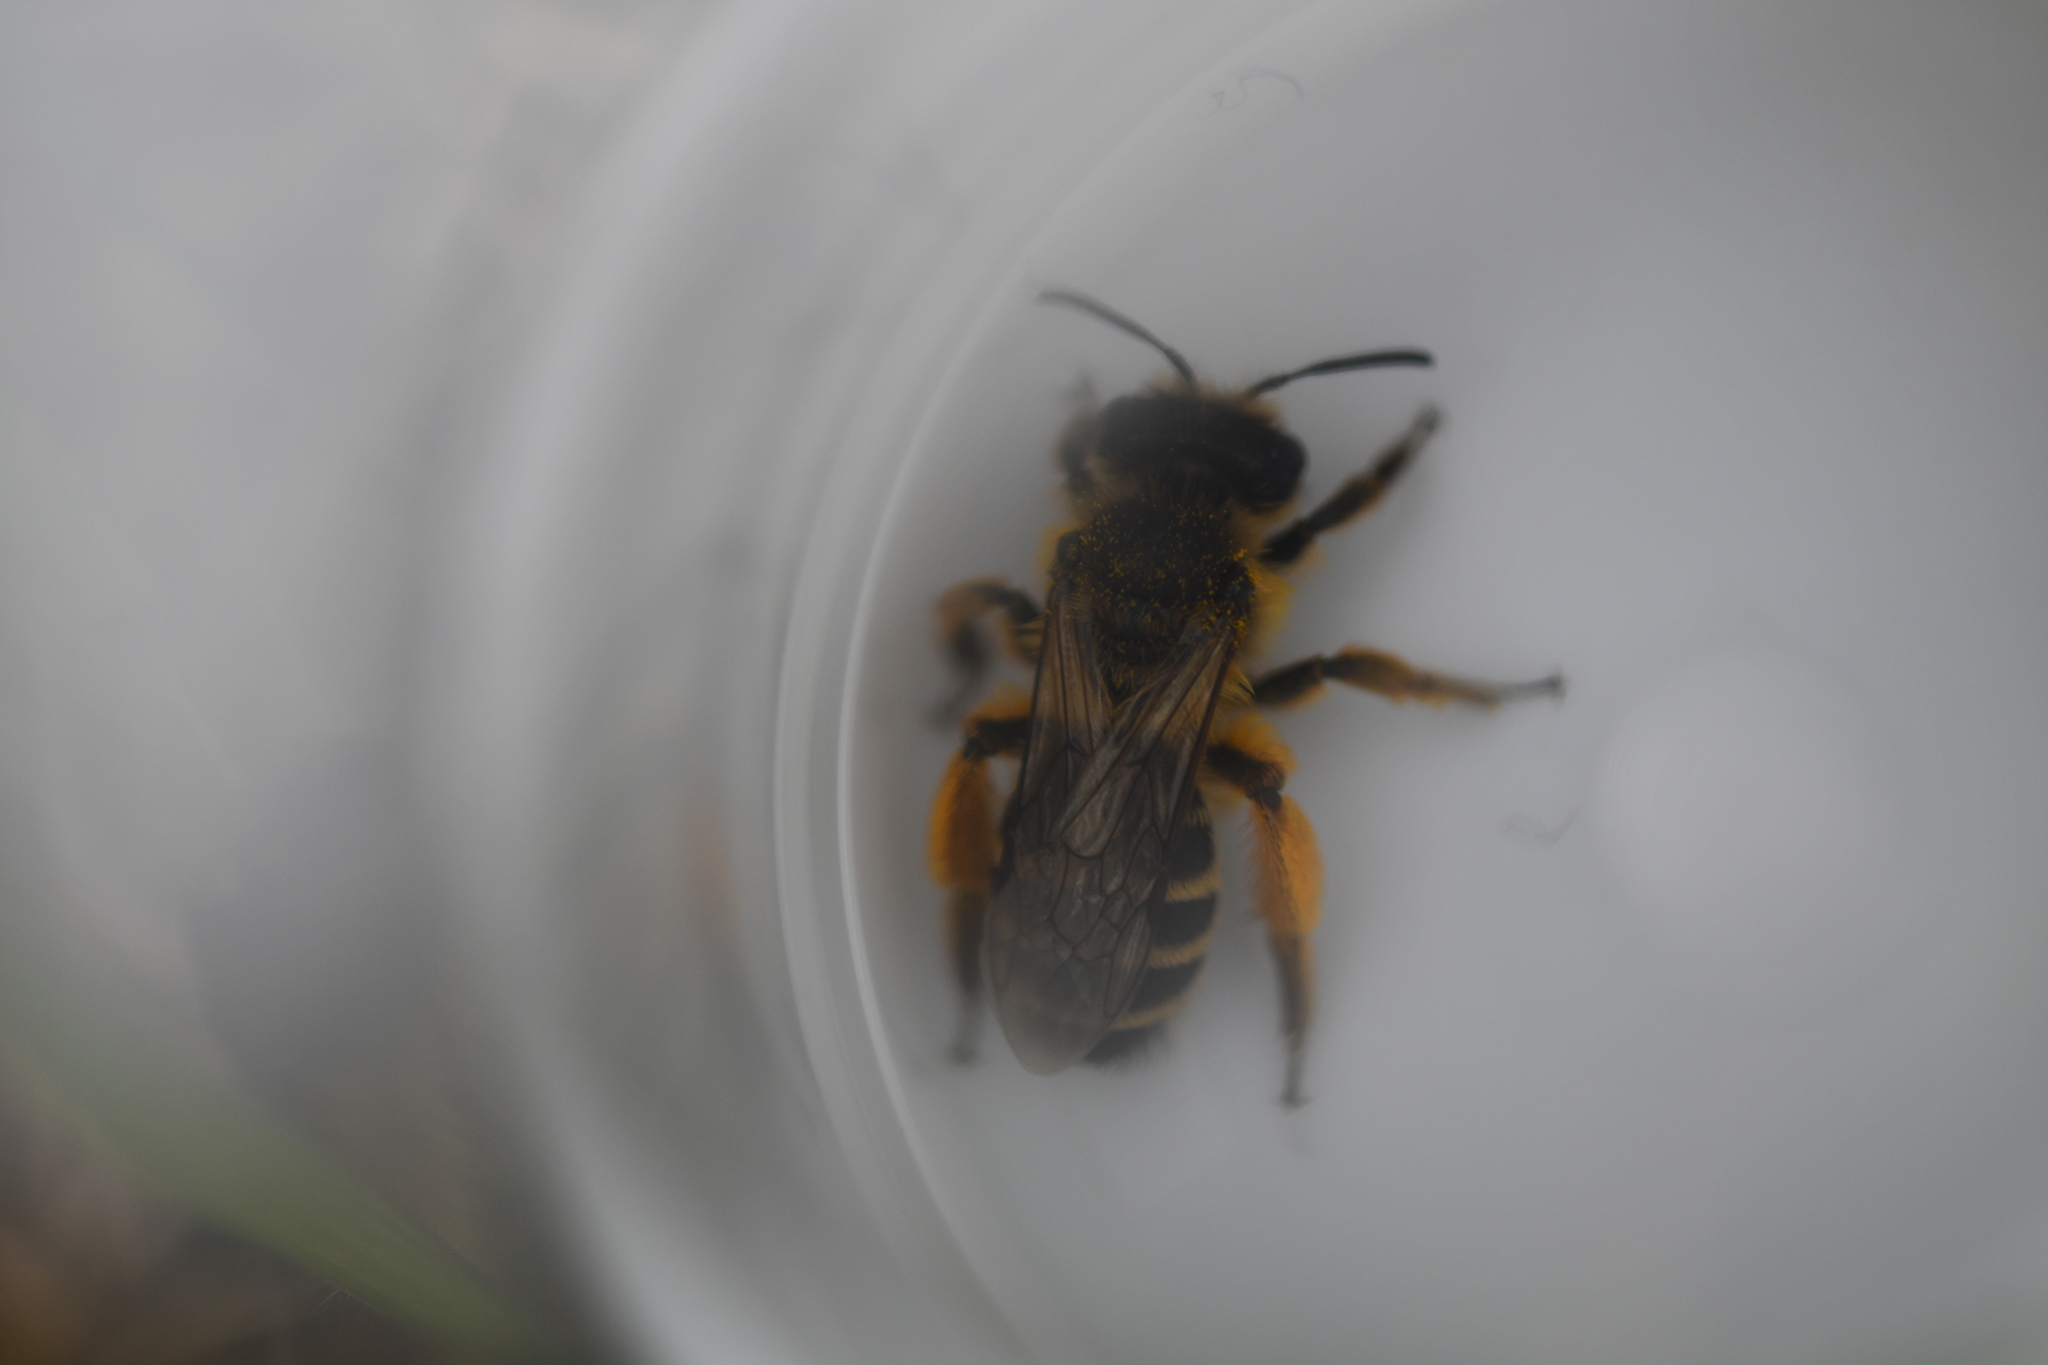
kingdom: Animalia
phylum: Arthropoda
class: Insecta
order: Hymenoptera
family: Andrenidae
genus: Andrena
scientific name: Andrena flavipes
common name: Yellow-legged mining bee
